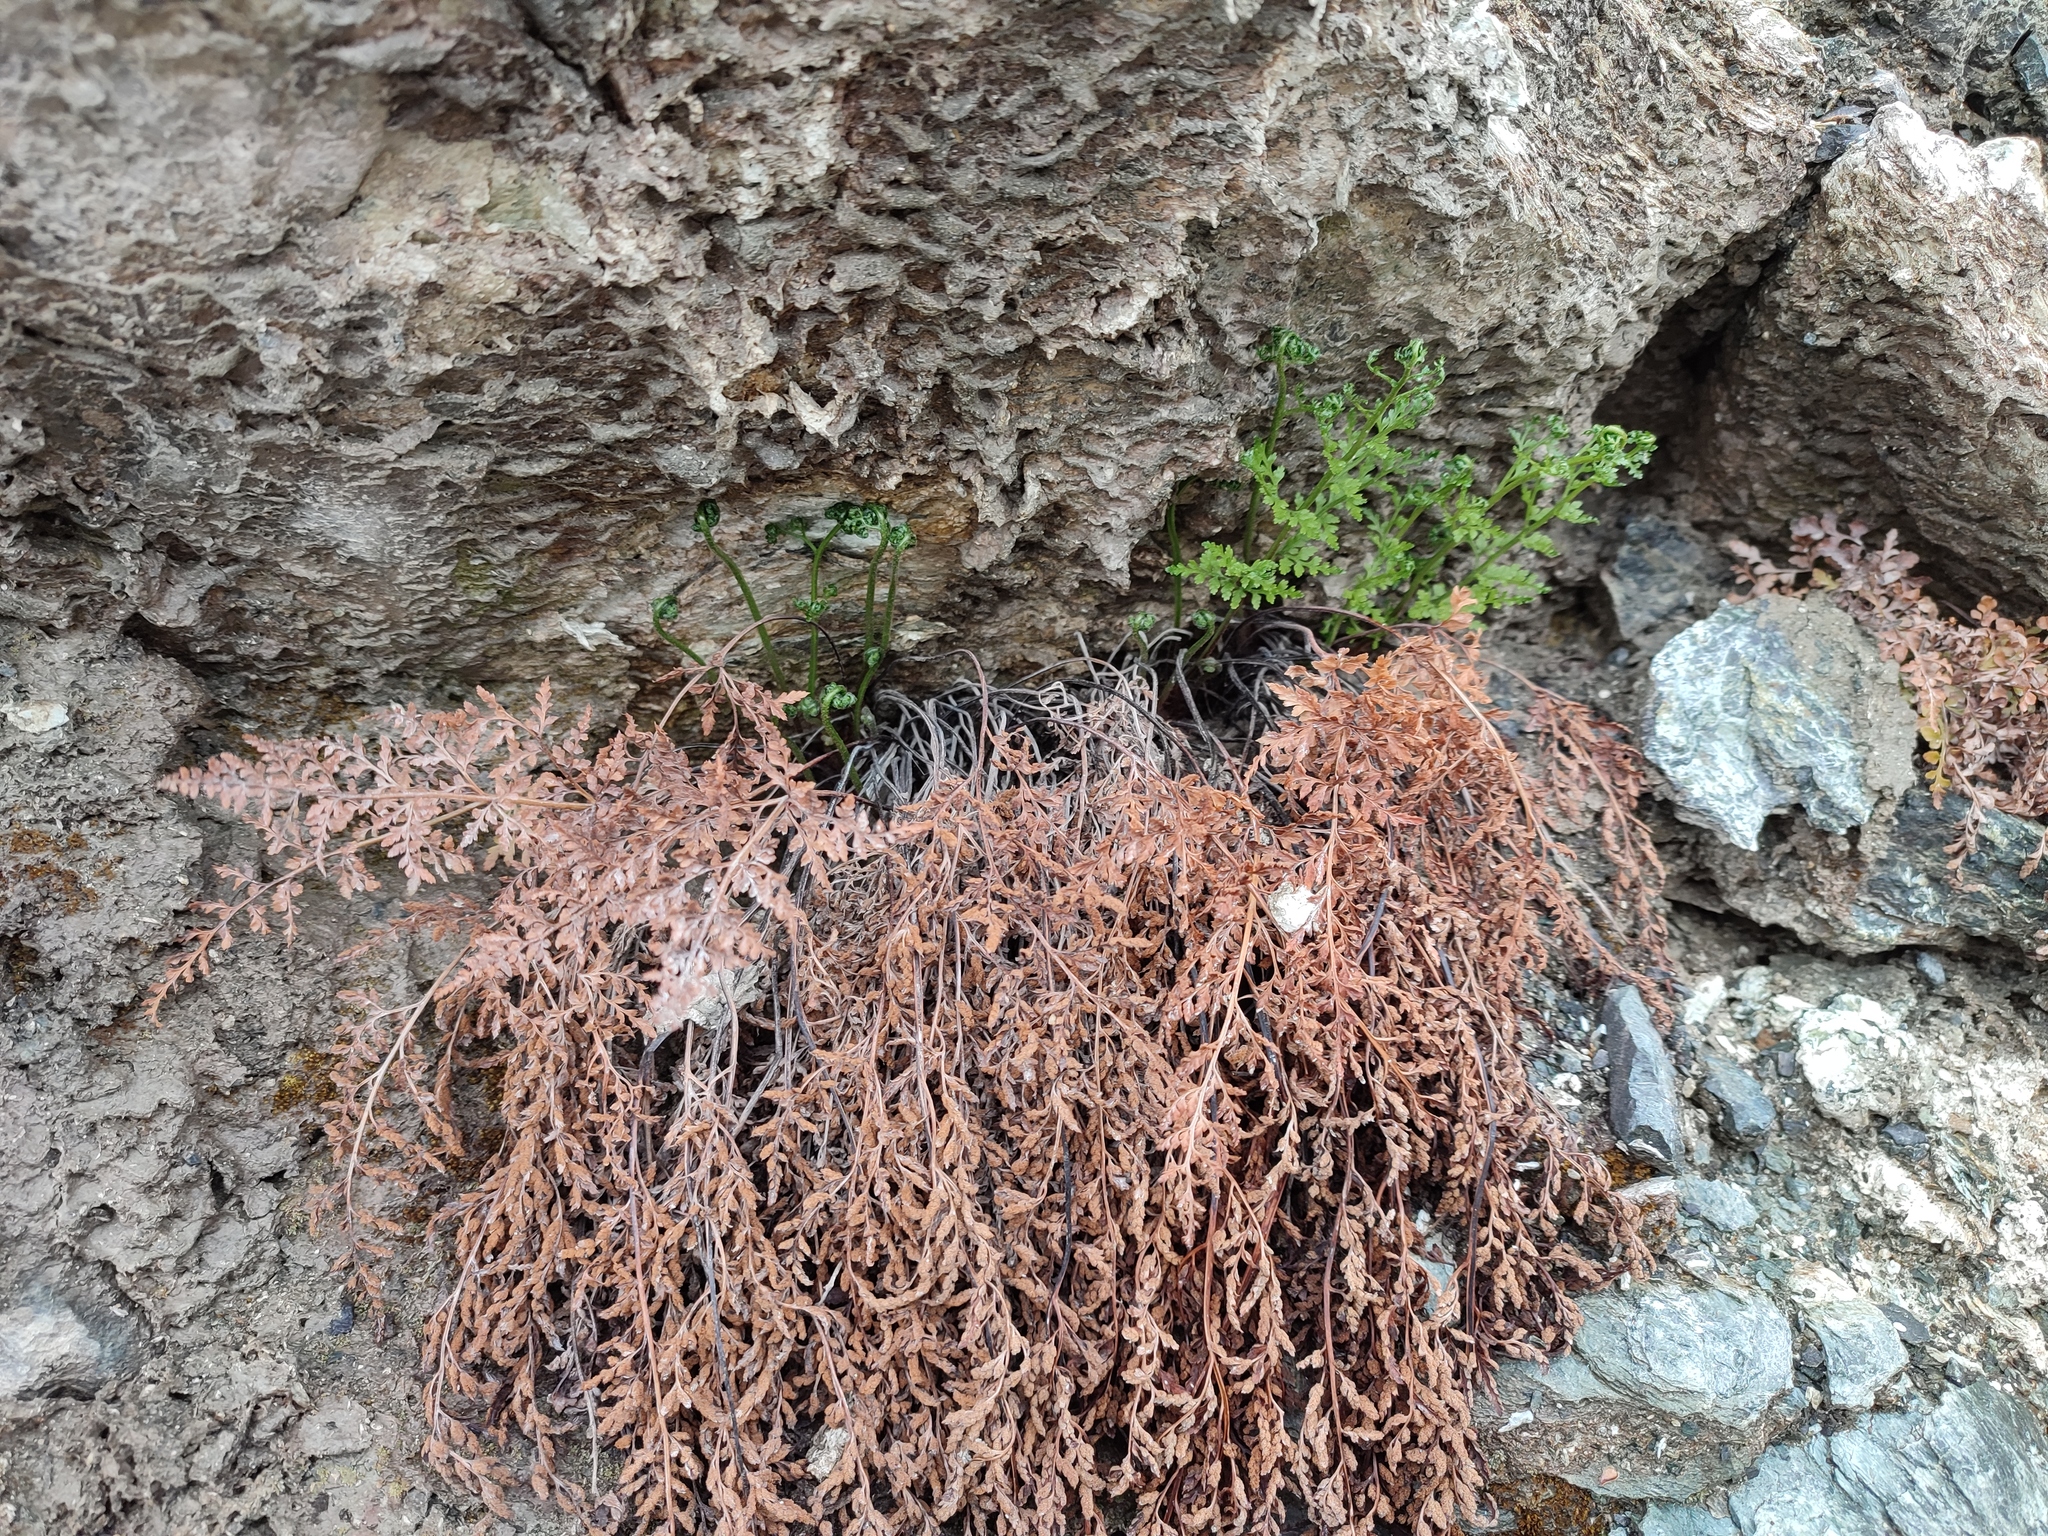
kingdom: Plantae
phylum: Tracheophyta
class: Polypodiopsida
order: Polypodiales
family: Aspleniaceae
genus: Asplenium
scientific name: Asplenium cuneifolium
